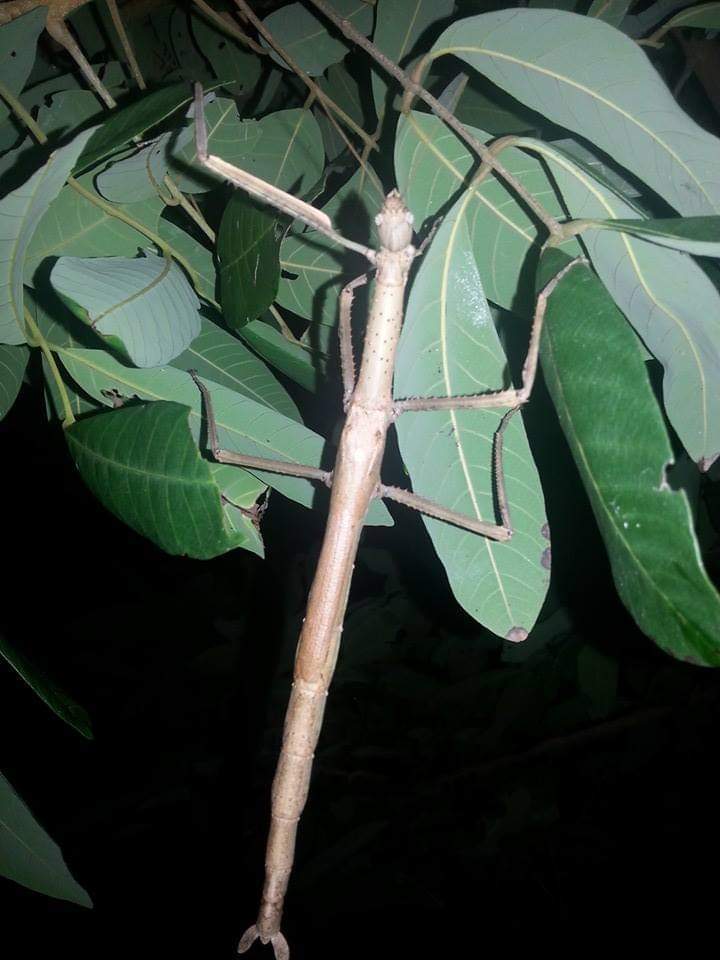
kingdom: Animalia
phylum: Arthropoda
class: Insecta
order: Phasmida
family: Phasmatidae
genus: Anchiale
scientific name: Anchiale briareus
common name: Strong stick insect
